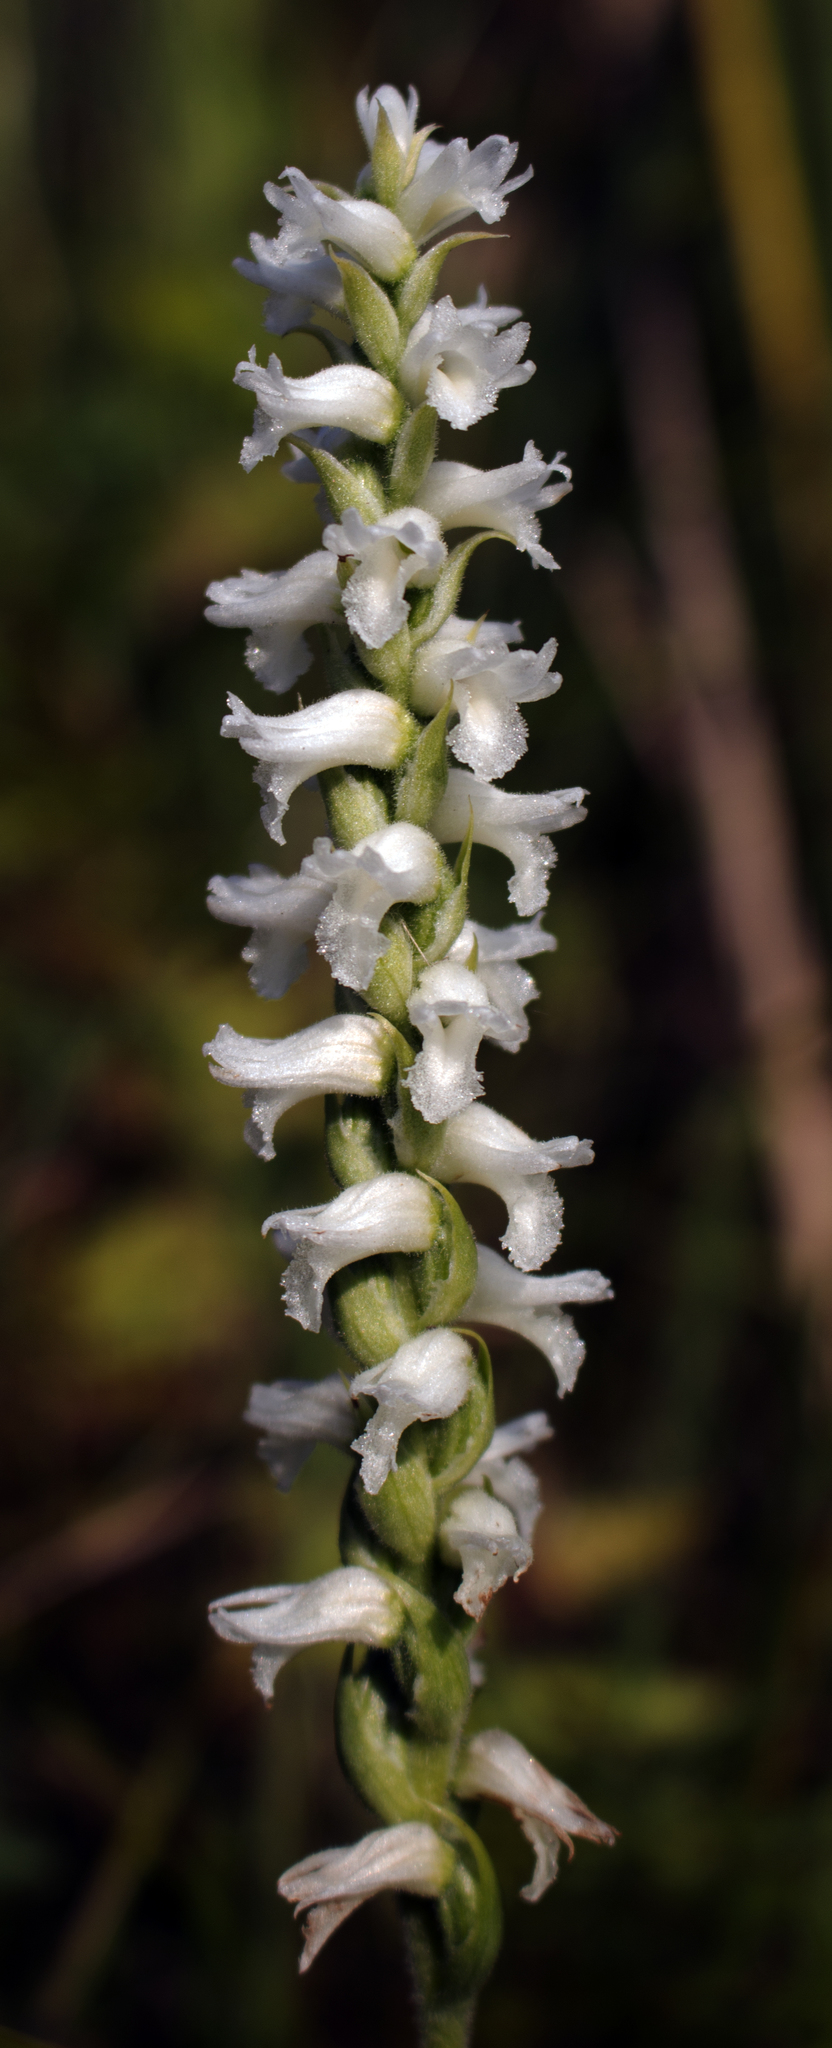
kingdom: Plantae
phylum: Tracheophyta
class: Liliopsida
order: Asparagales
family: Orchidaceae
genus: Spiranthes
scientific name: Spiranthes incurva
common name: Sphinx ladies'-tresses
